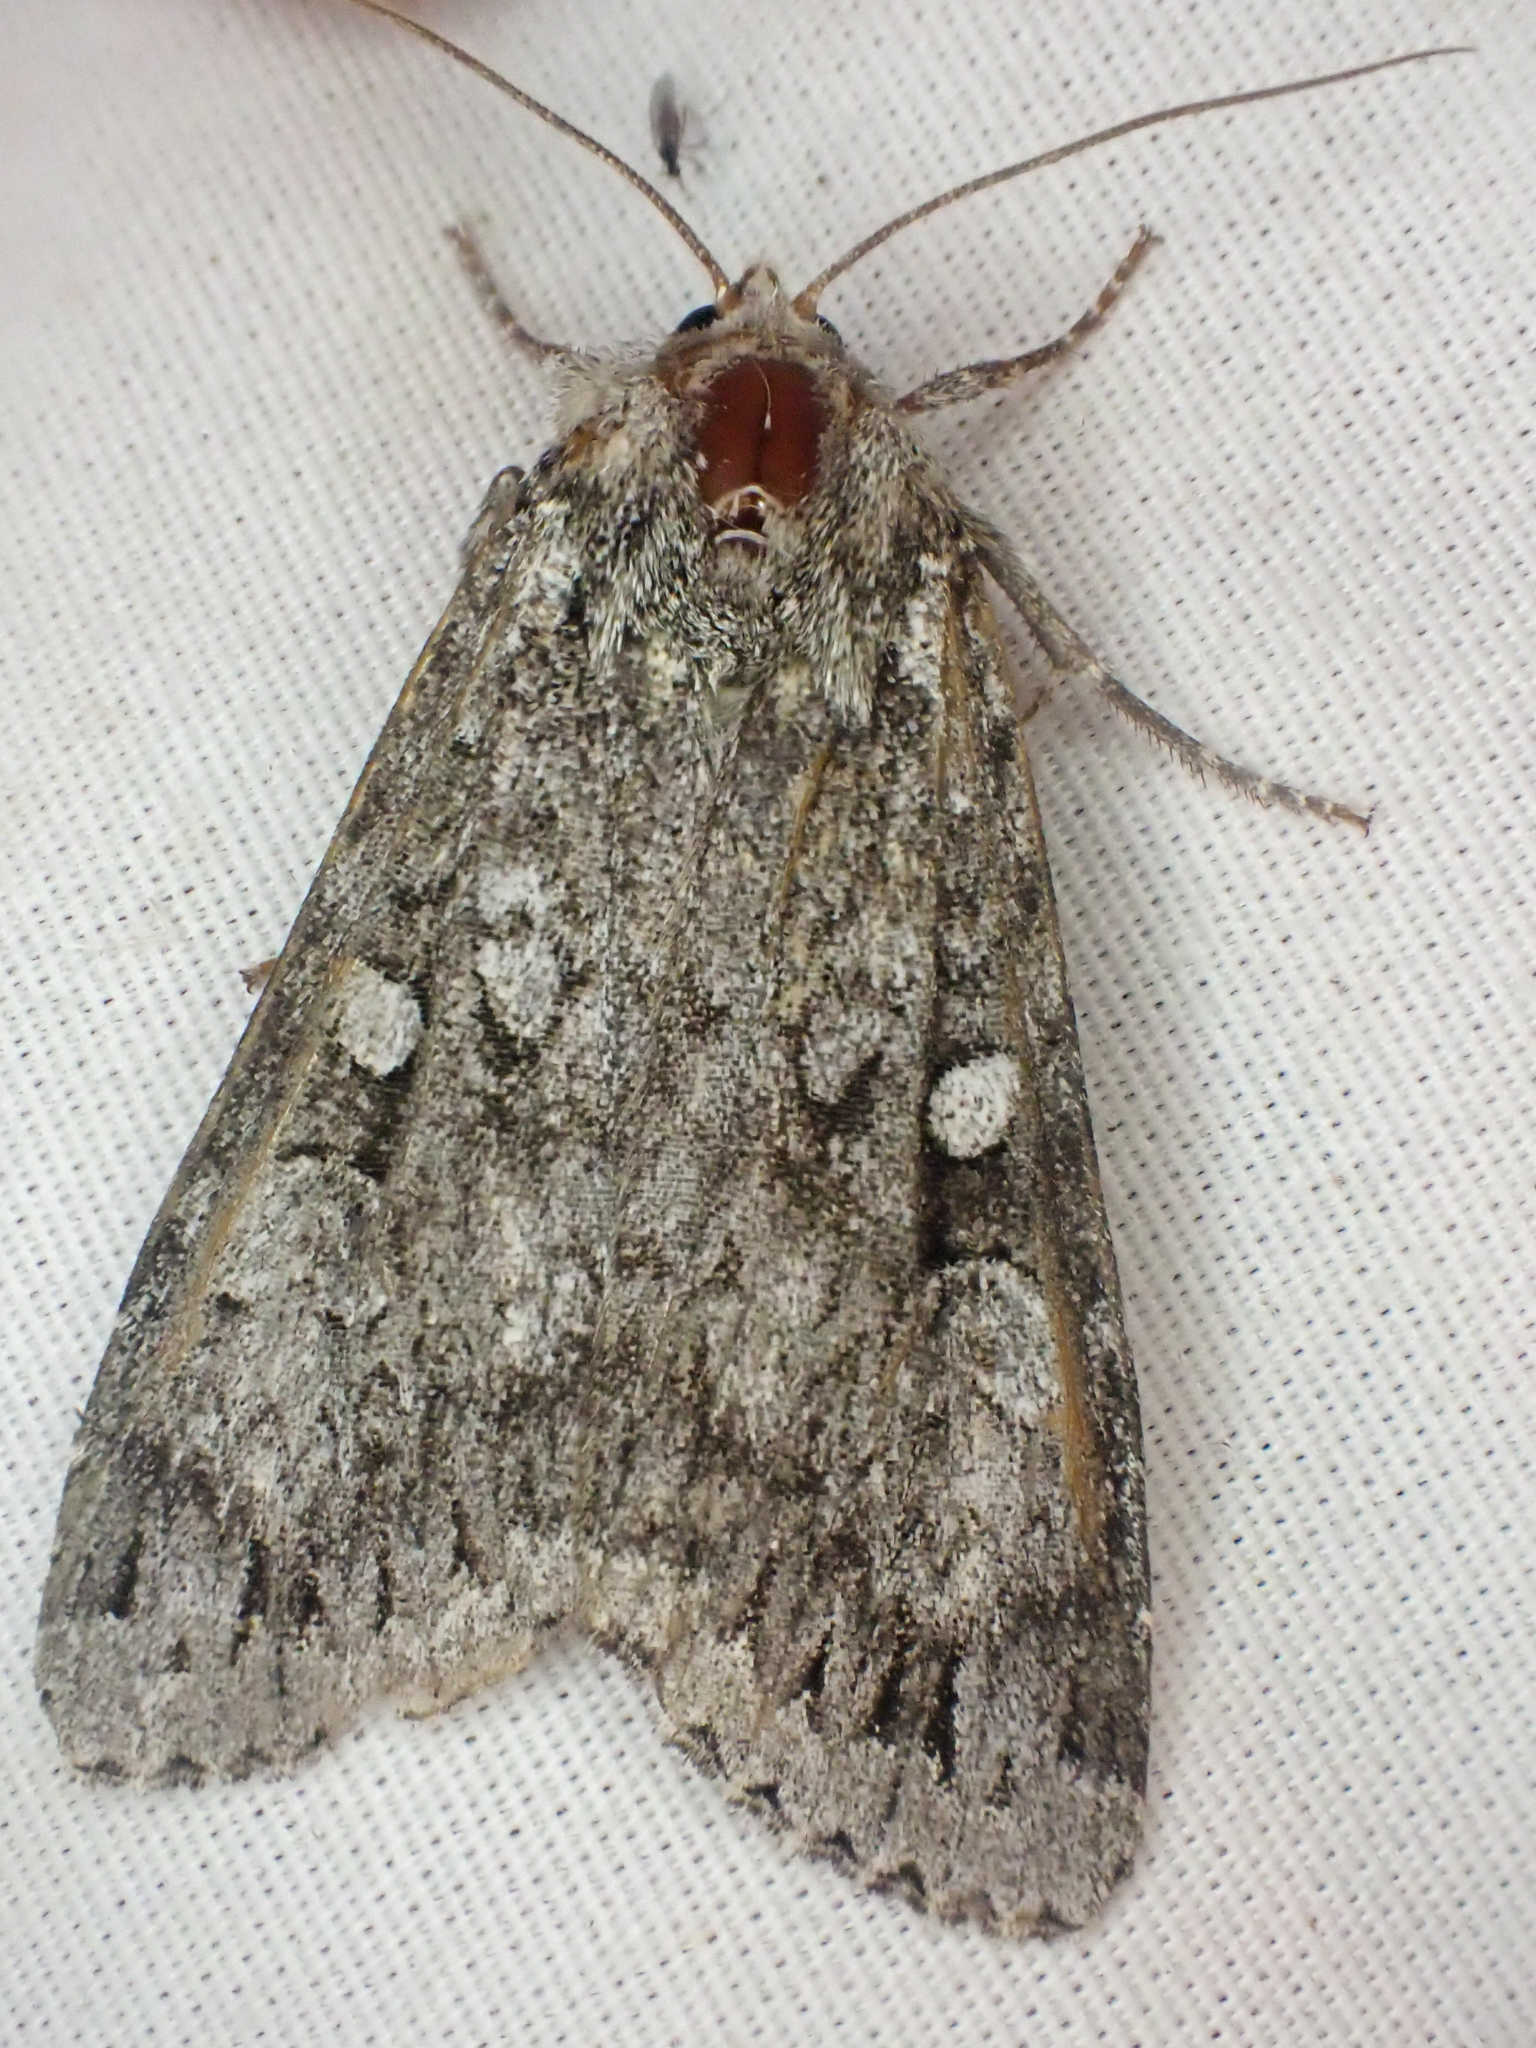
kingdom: Animalia
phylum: Arthropoda
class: Insecta
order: Lepidoptera
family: Noctuidae
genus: Eurois
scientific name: Eurois occulta
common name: Great brocade
